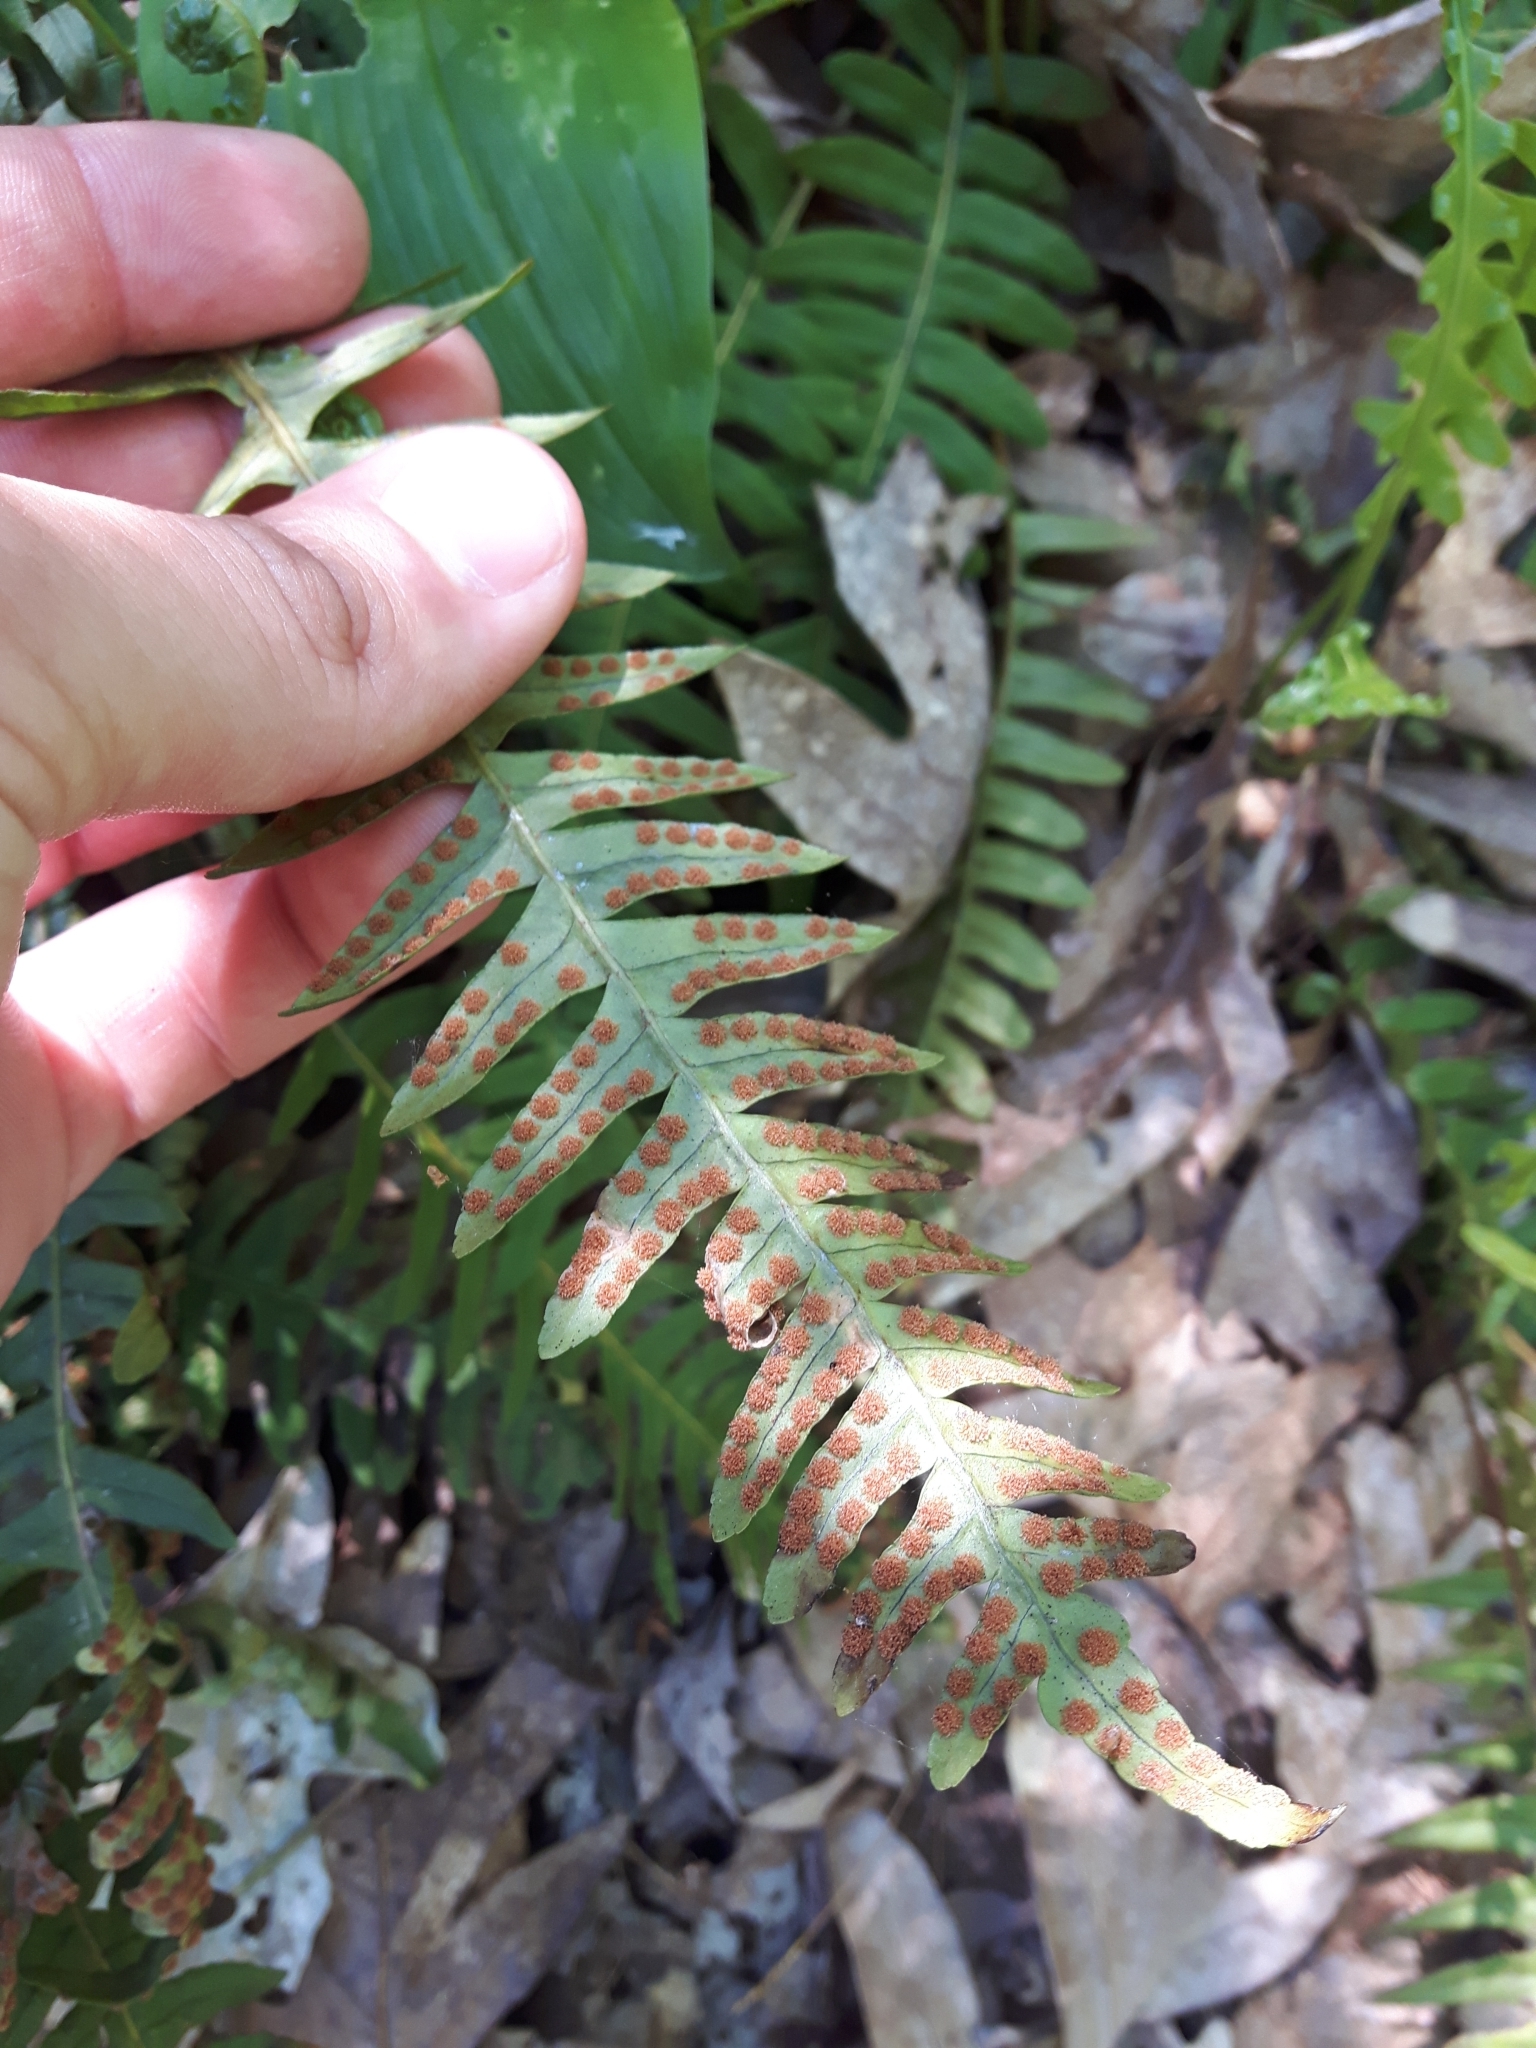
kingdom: Plantae
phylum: Tracheophyta
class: Polypodiopsida
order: Polypodiales
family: Polypodiaceae
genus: Polypodium
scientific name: Polypodium virginianum
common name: American wall fern
